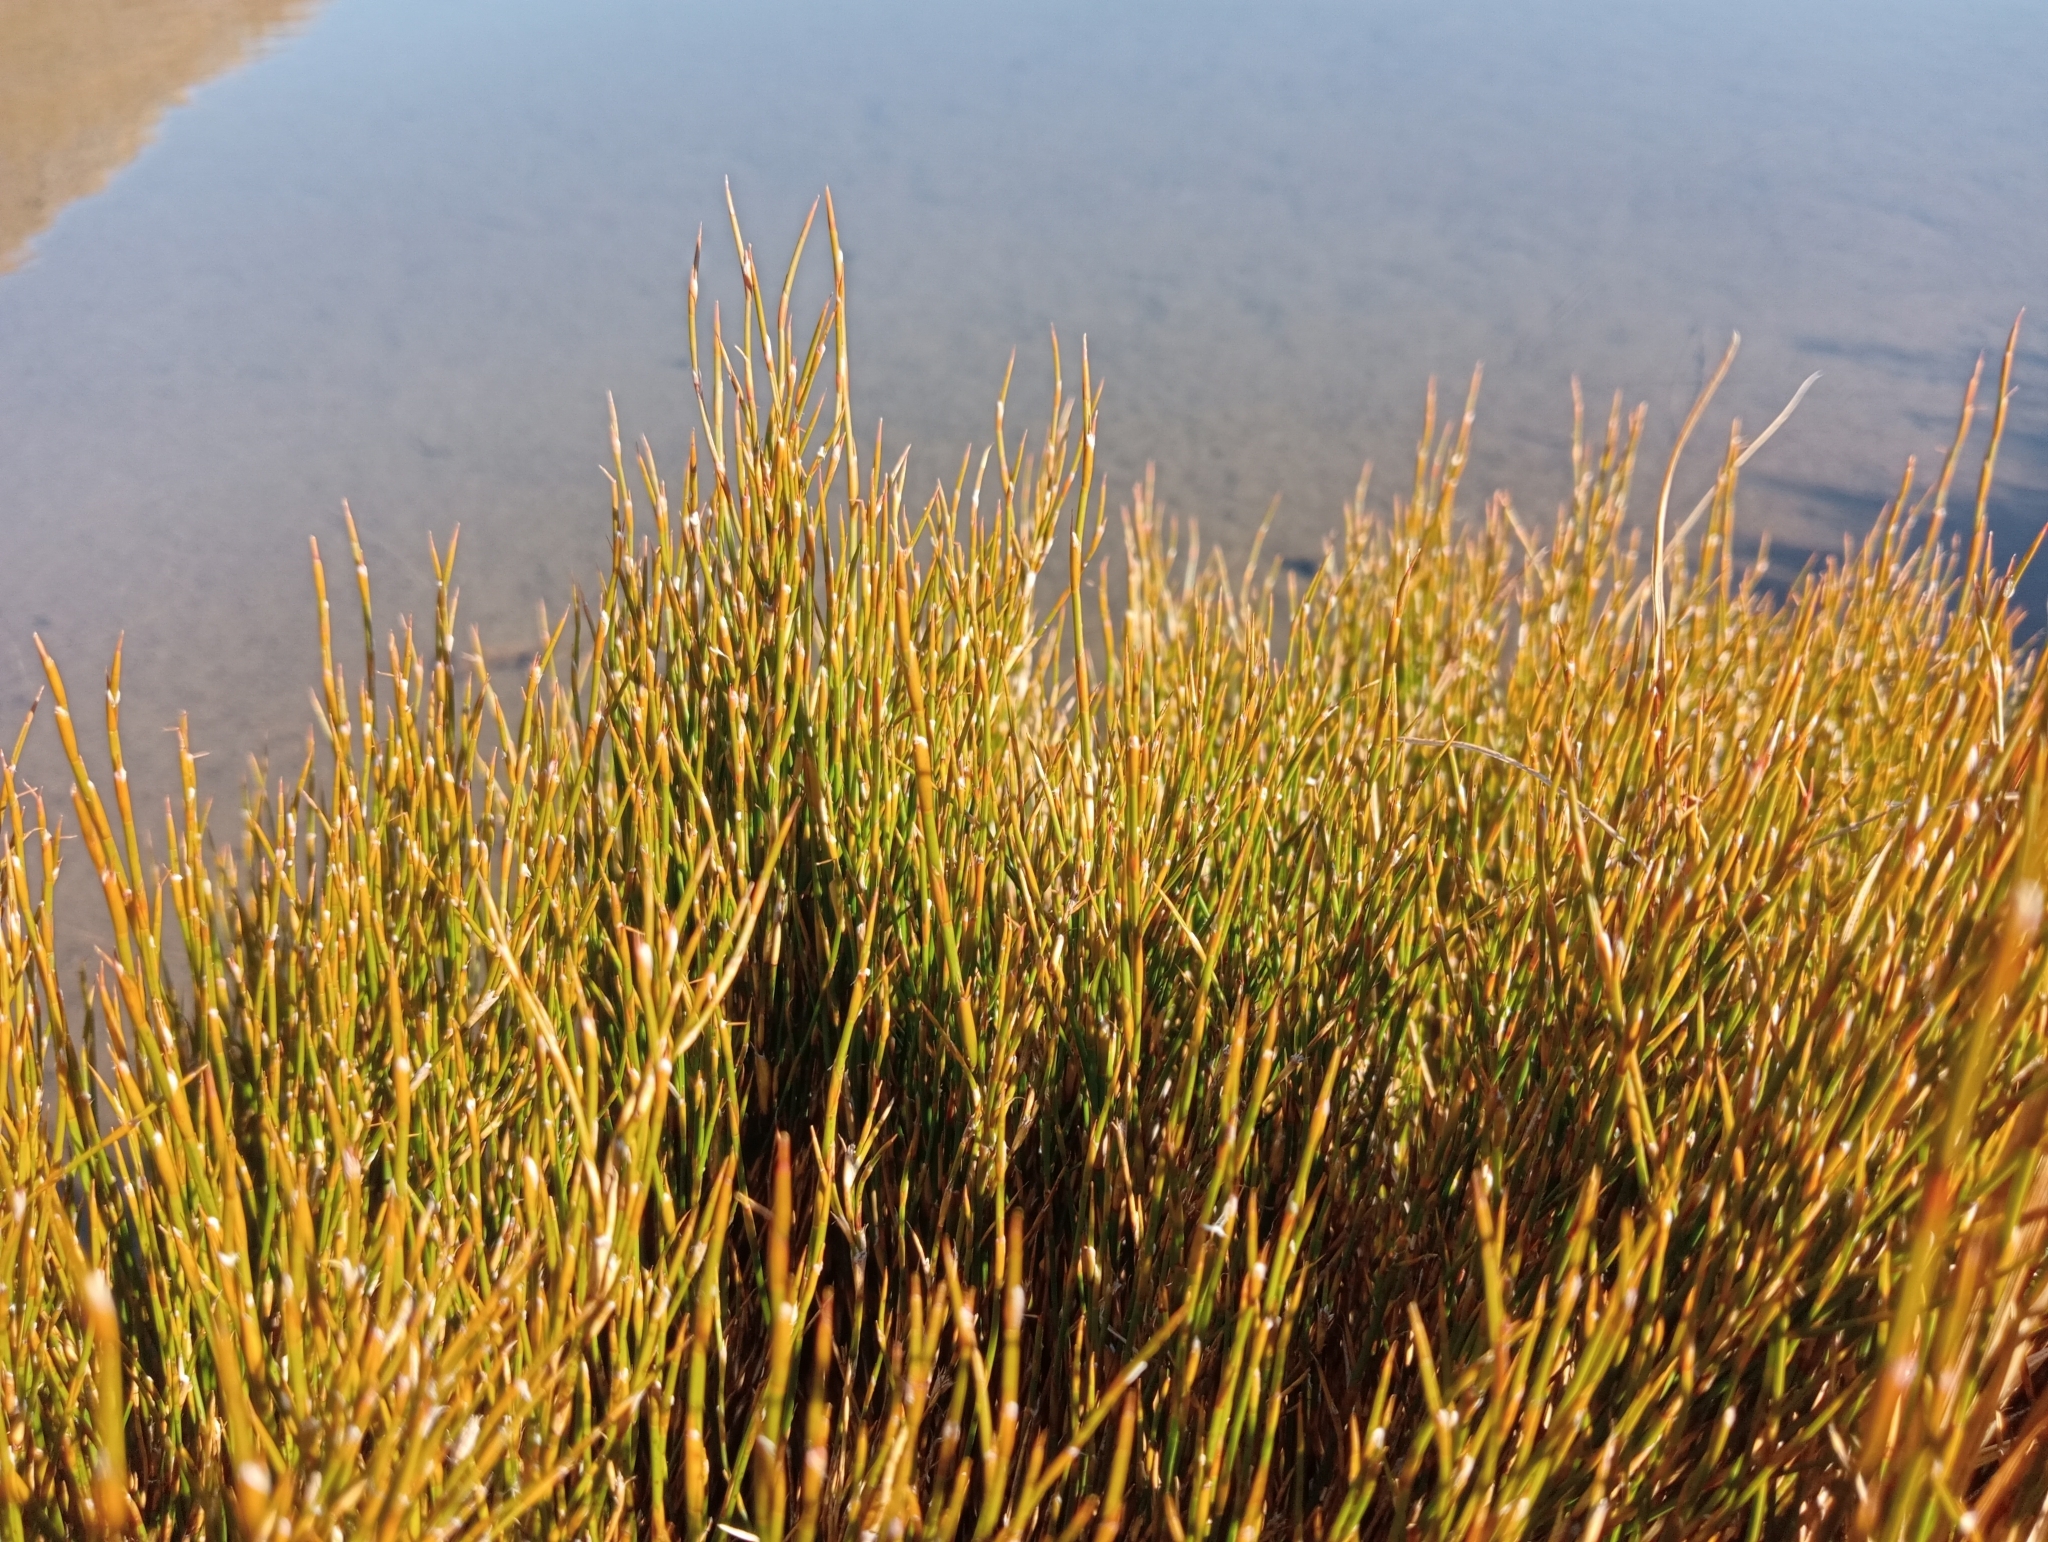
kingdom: Plantae
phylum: Tracheophyta
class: Liliopsida
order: Poales
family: Restionaceae
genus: Empodisma
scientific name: Empodisma minus
